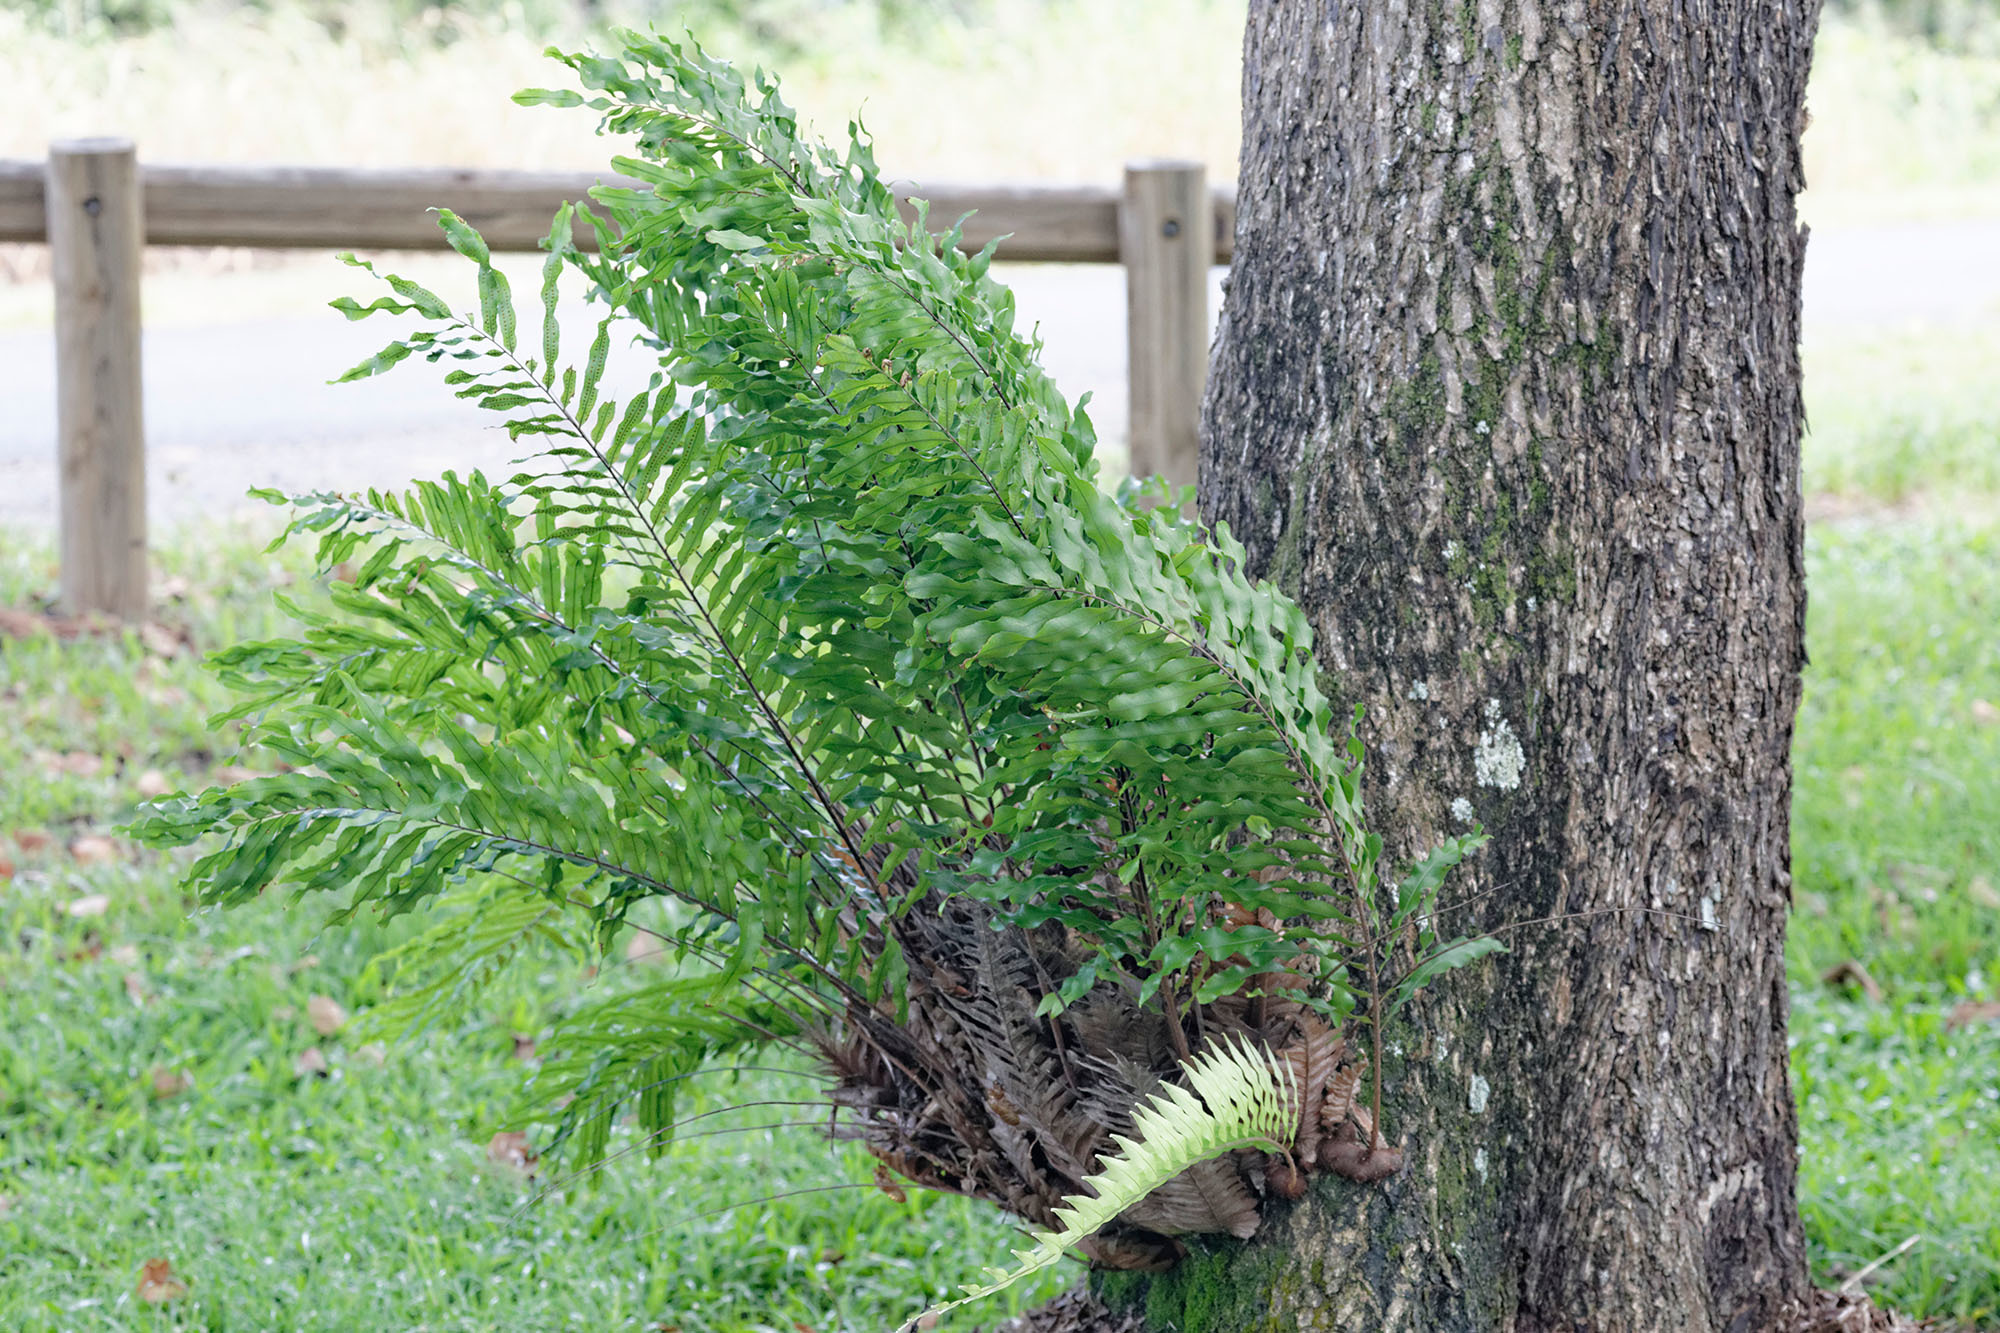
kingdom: Plantae
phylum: Tracheophyta
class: Polypodiopsida
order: Polypodiales
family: Polypodiaceae
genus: Drynaria
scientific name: Drynaria rigidula
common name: Basket fern
